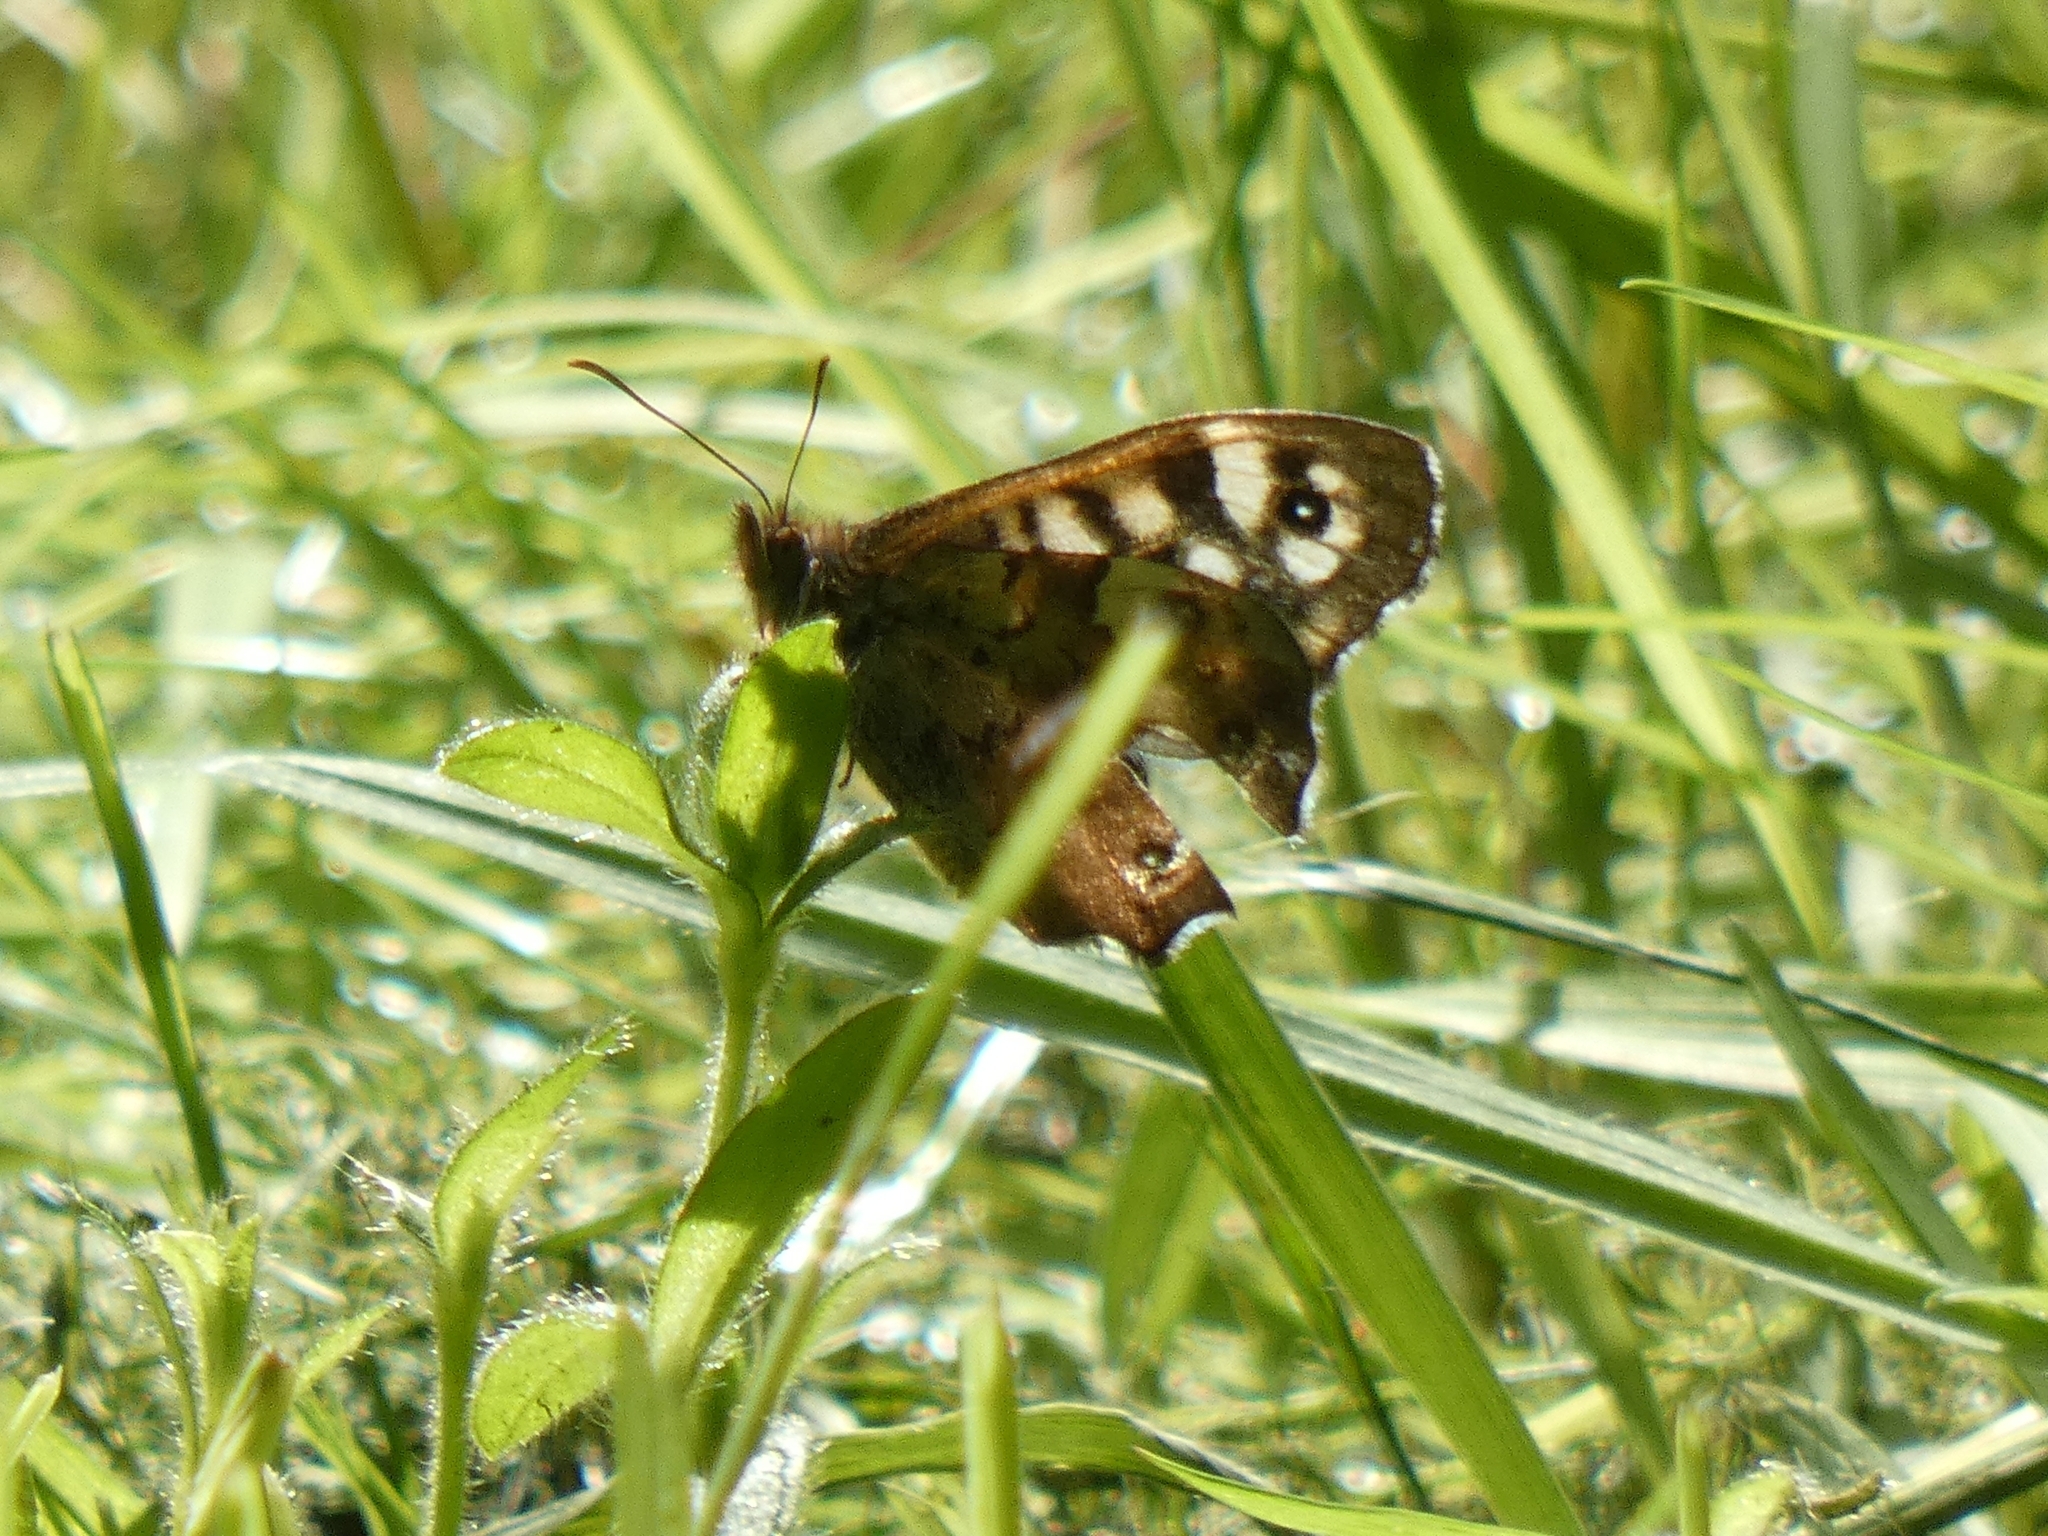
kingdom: Animalia
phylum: Arthropoda
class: Insecta
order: Lepidoptera
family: Nymphalidae
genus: Pararge
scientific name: Pararge aegeria
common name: Speckled wood
